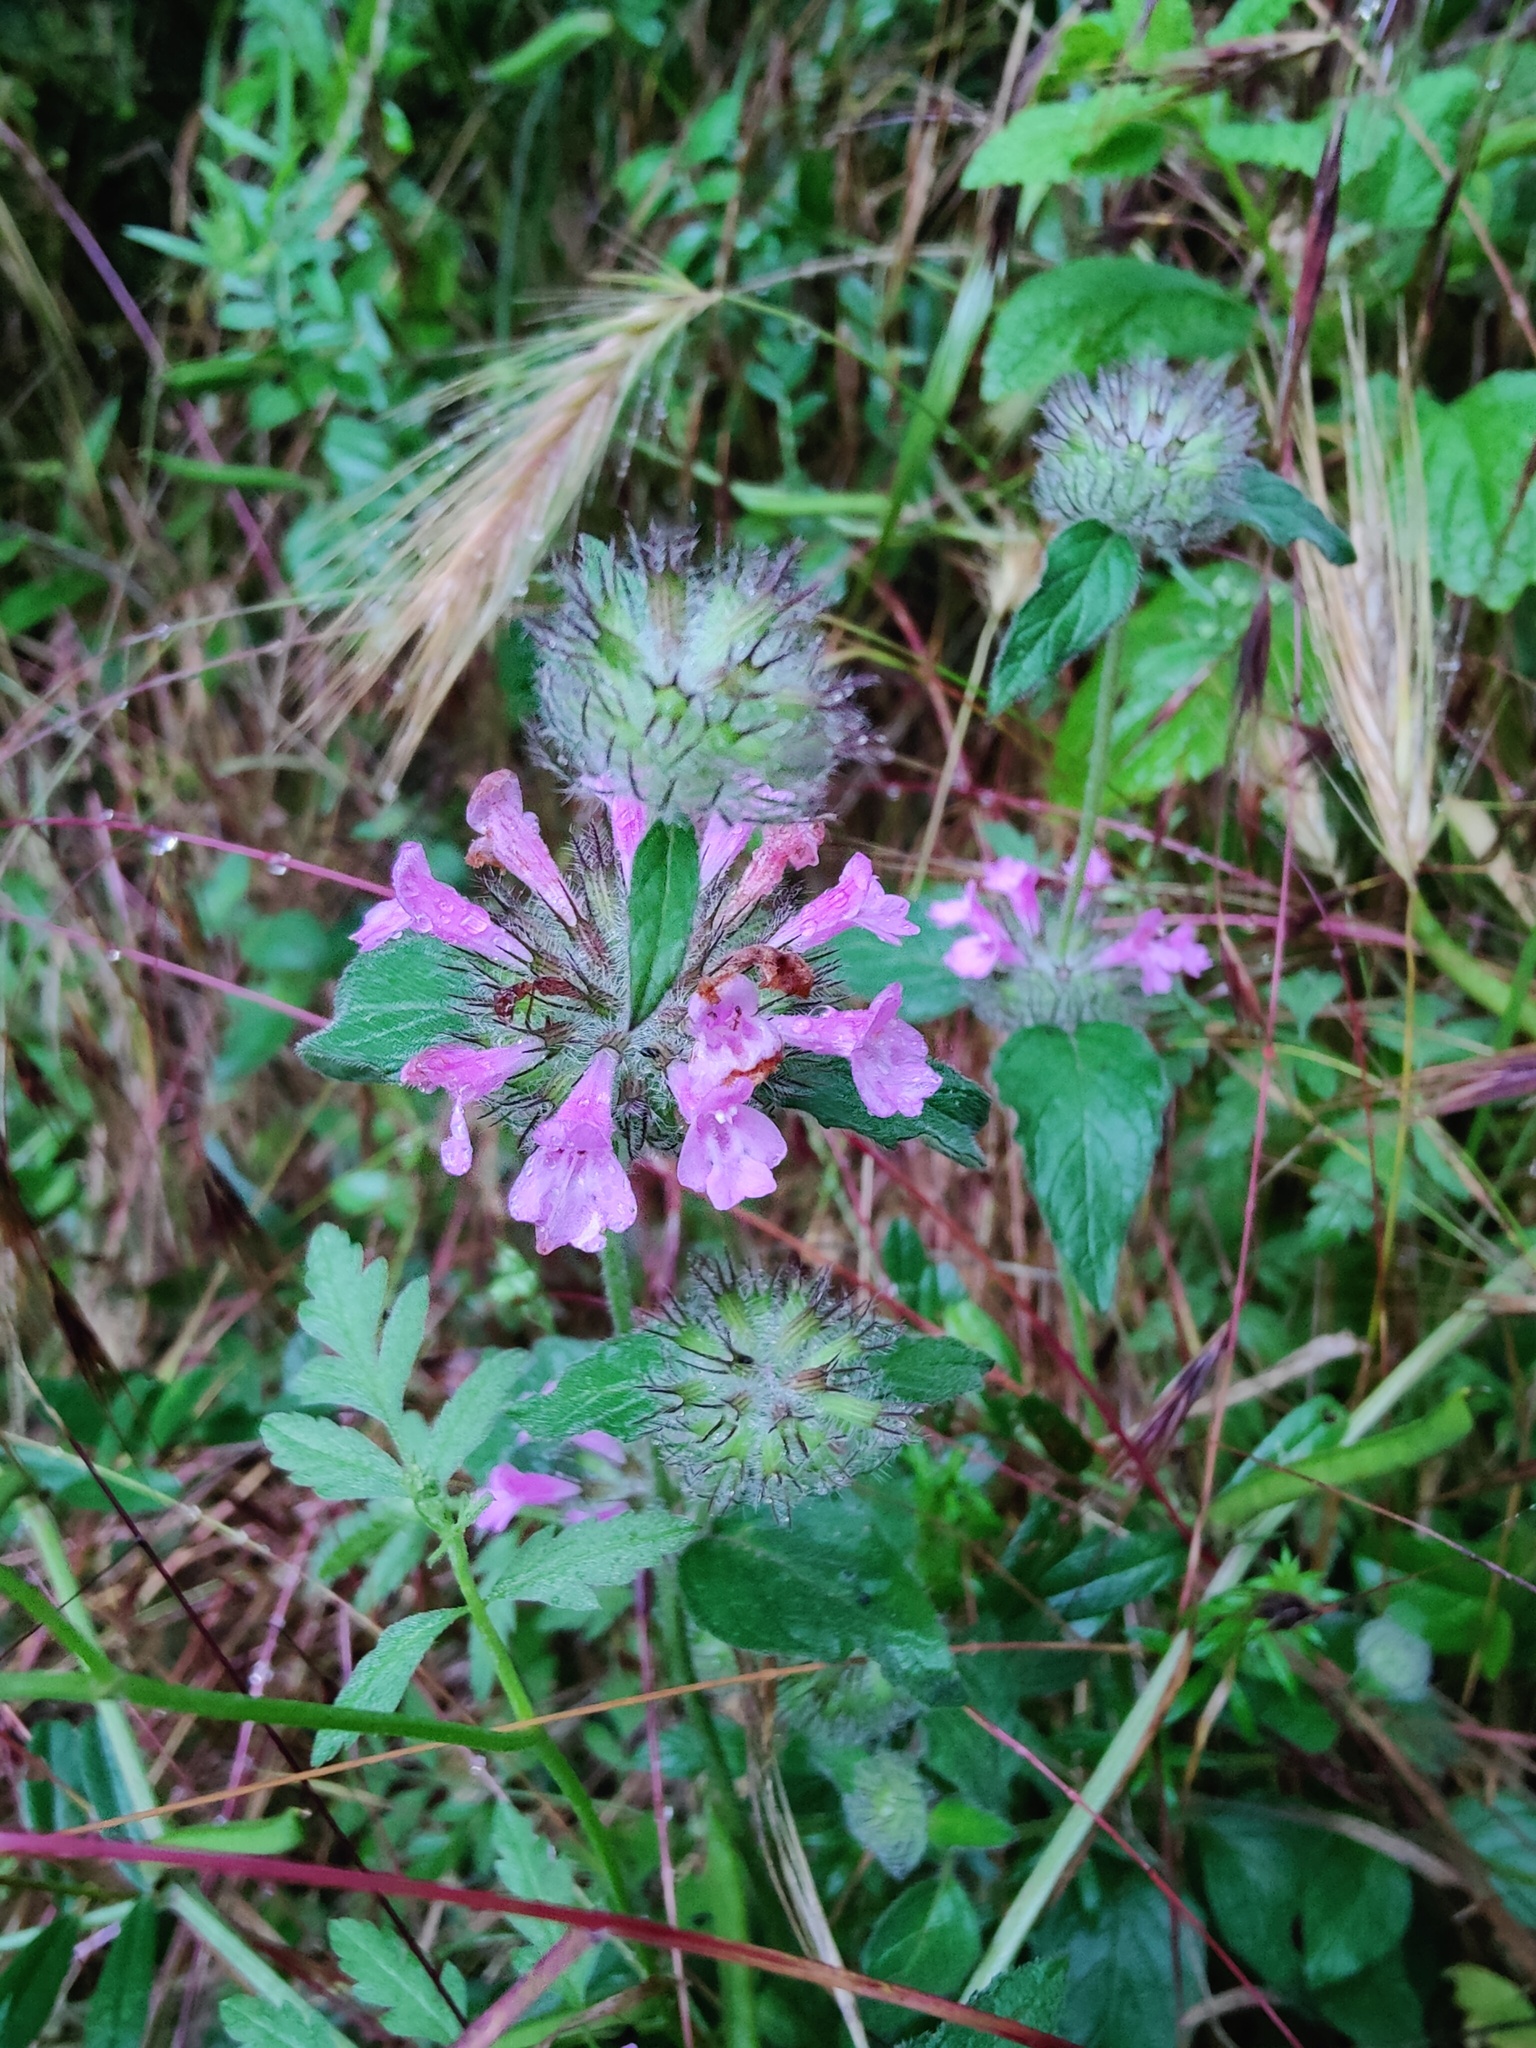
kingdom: Plantae
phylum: Tracheophyta
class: Magnoliopsida
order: Lamiales
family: Lamiaceae
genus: Clinopodium
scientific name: Clinopodium caucasicum
